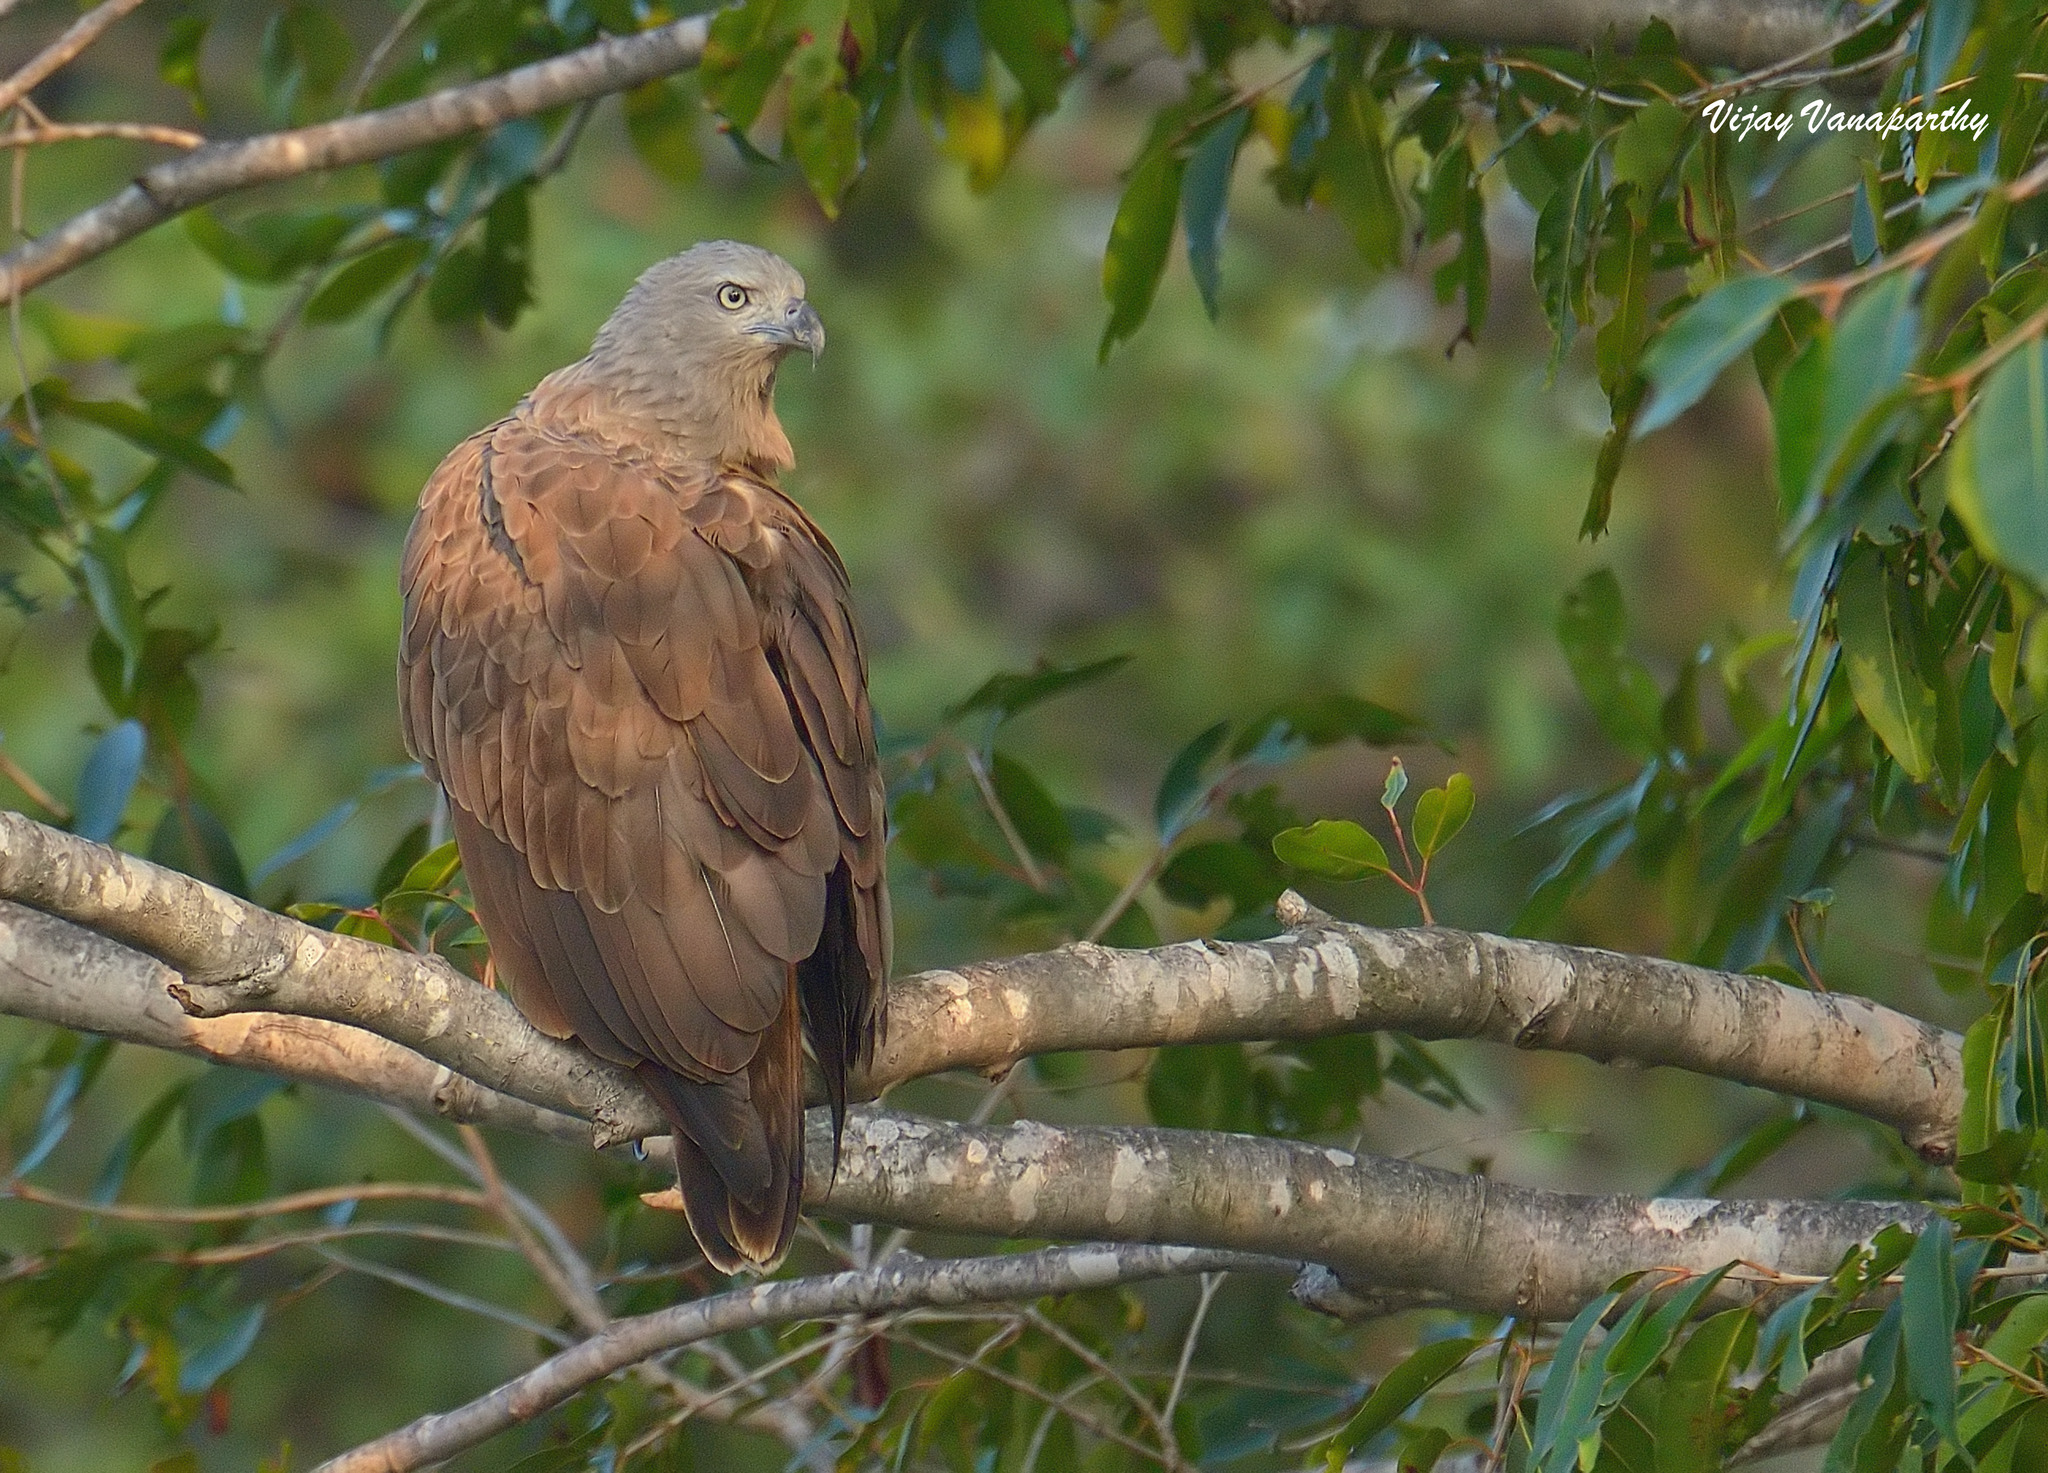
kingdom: Animalia
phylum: Chordata
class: Aves
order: Accipitriformes
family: Accipitridae
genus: Icthyophaga
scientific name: Icthyophaga humilis
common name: Lesser fish-eagle
